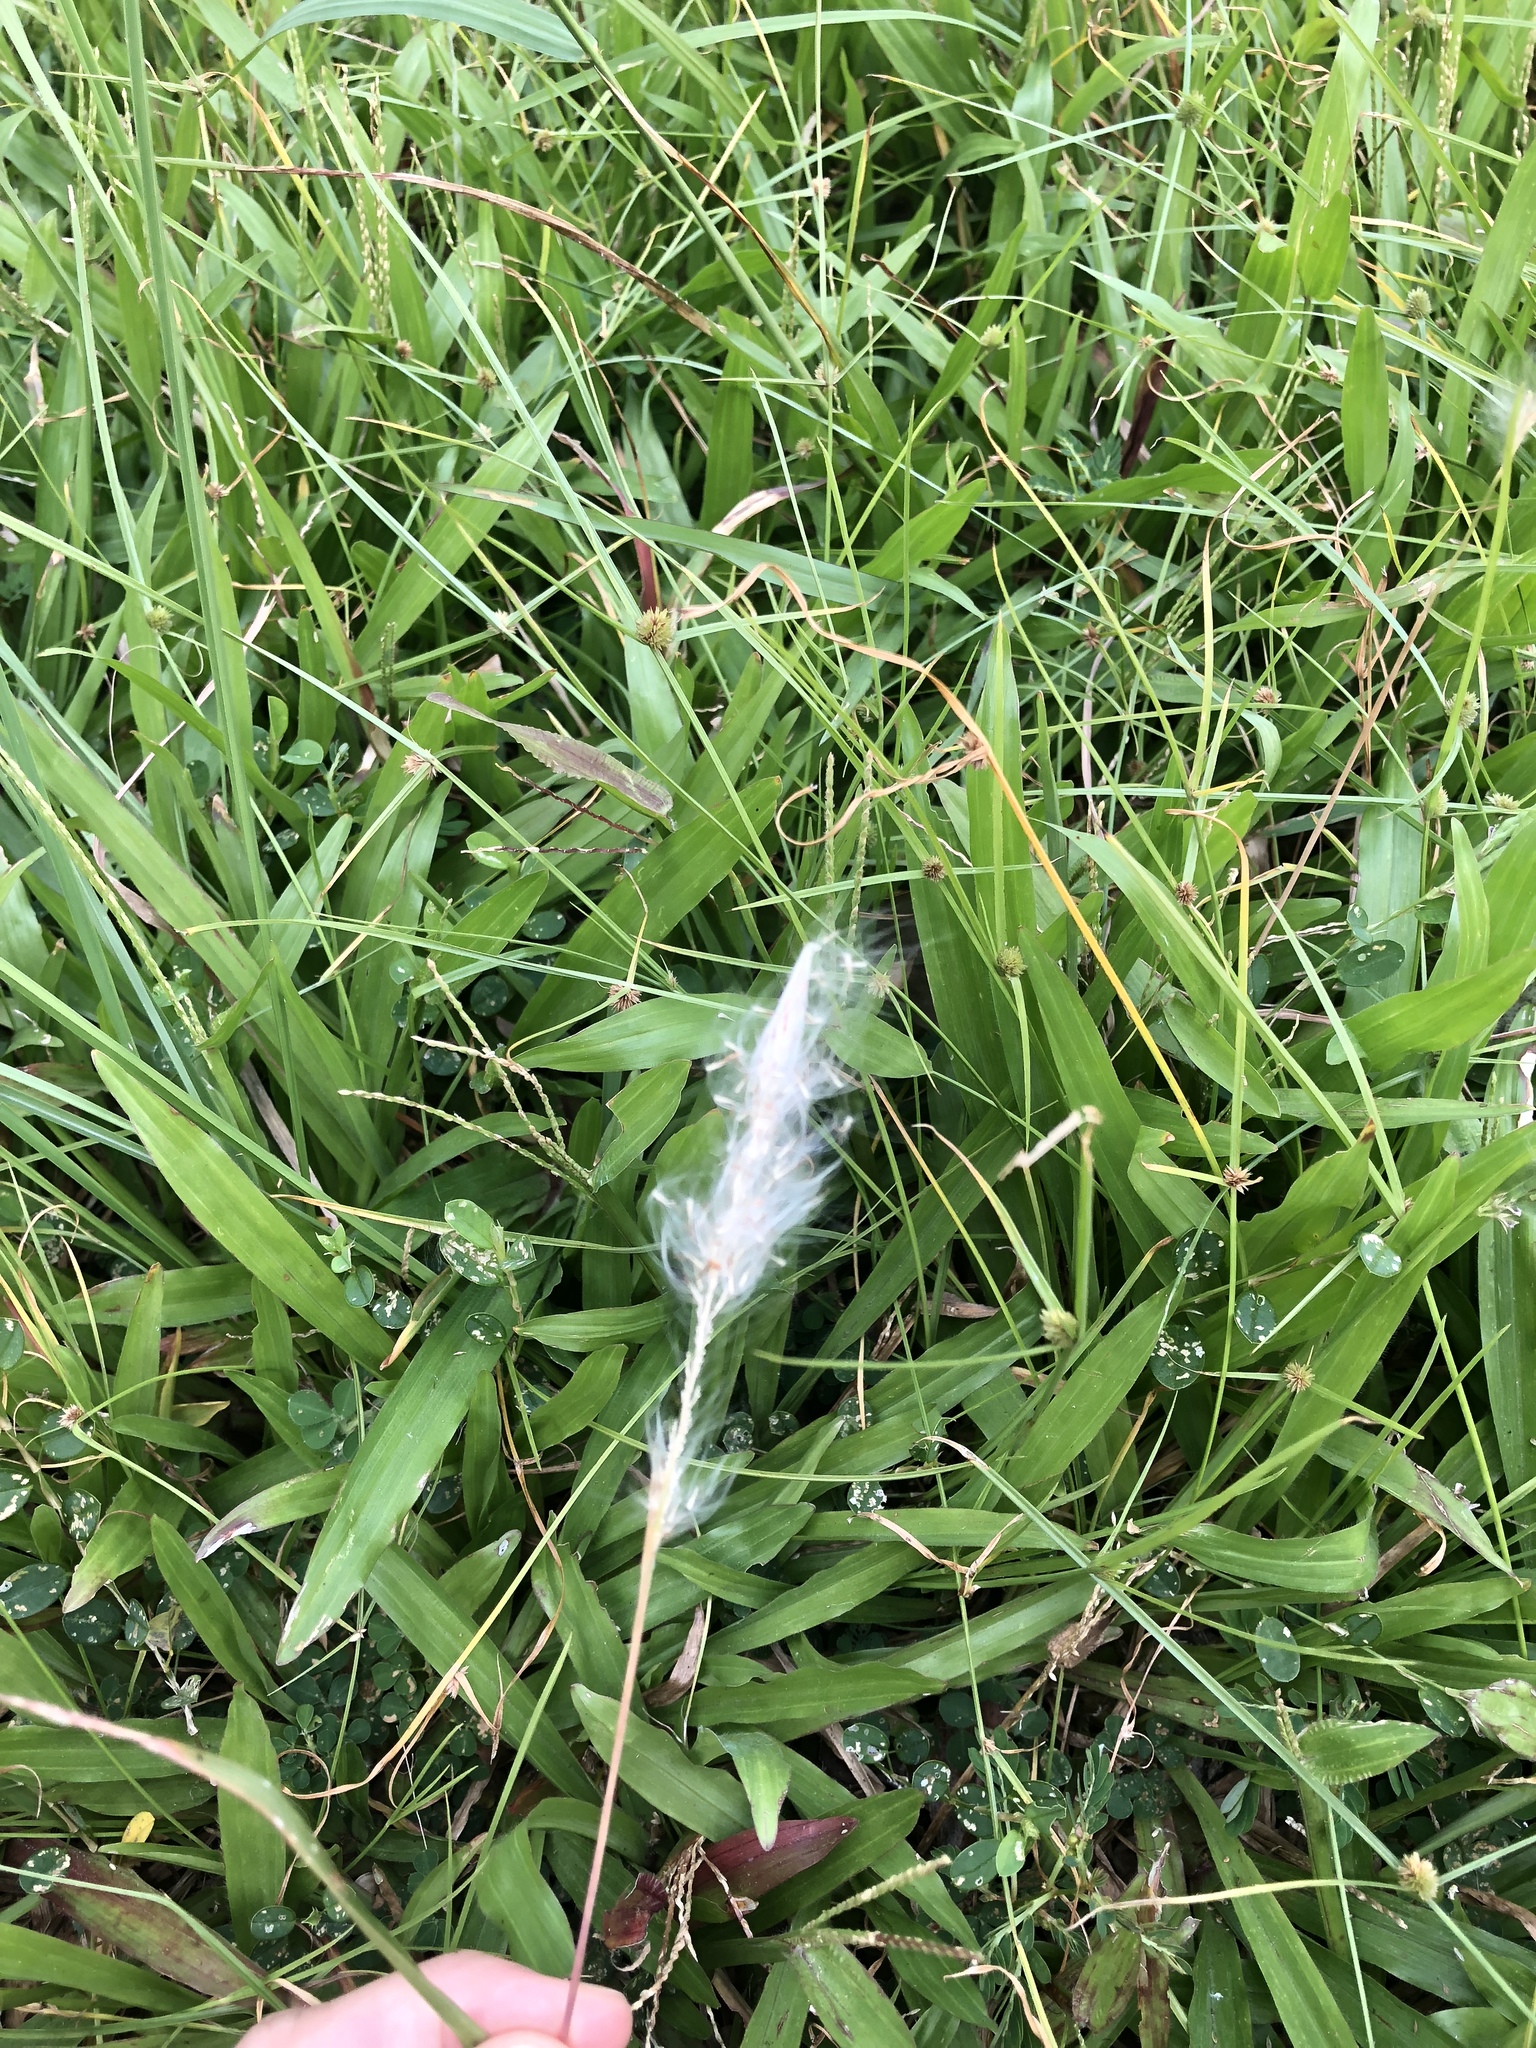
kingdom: Plantae
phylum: Tracheophyta
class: Liliopsida
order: Poales
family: Poaceae
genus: Imperata
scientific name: Imperata cylindrica
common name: Cogongrass
